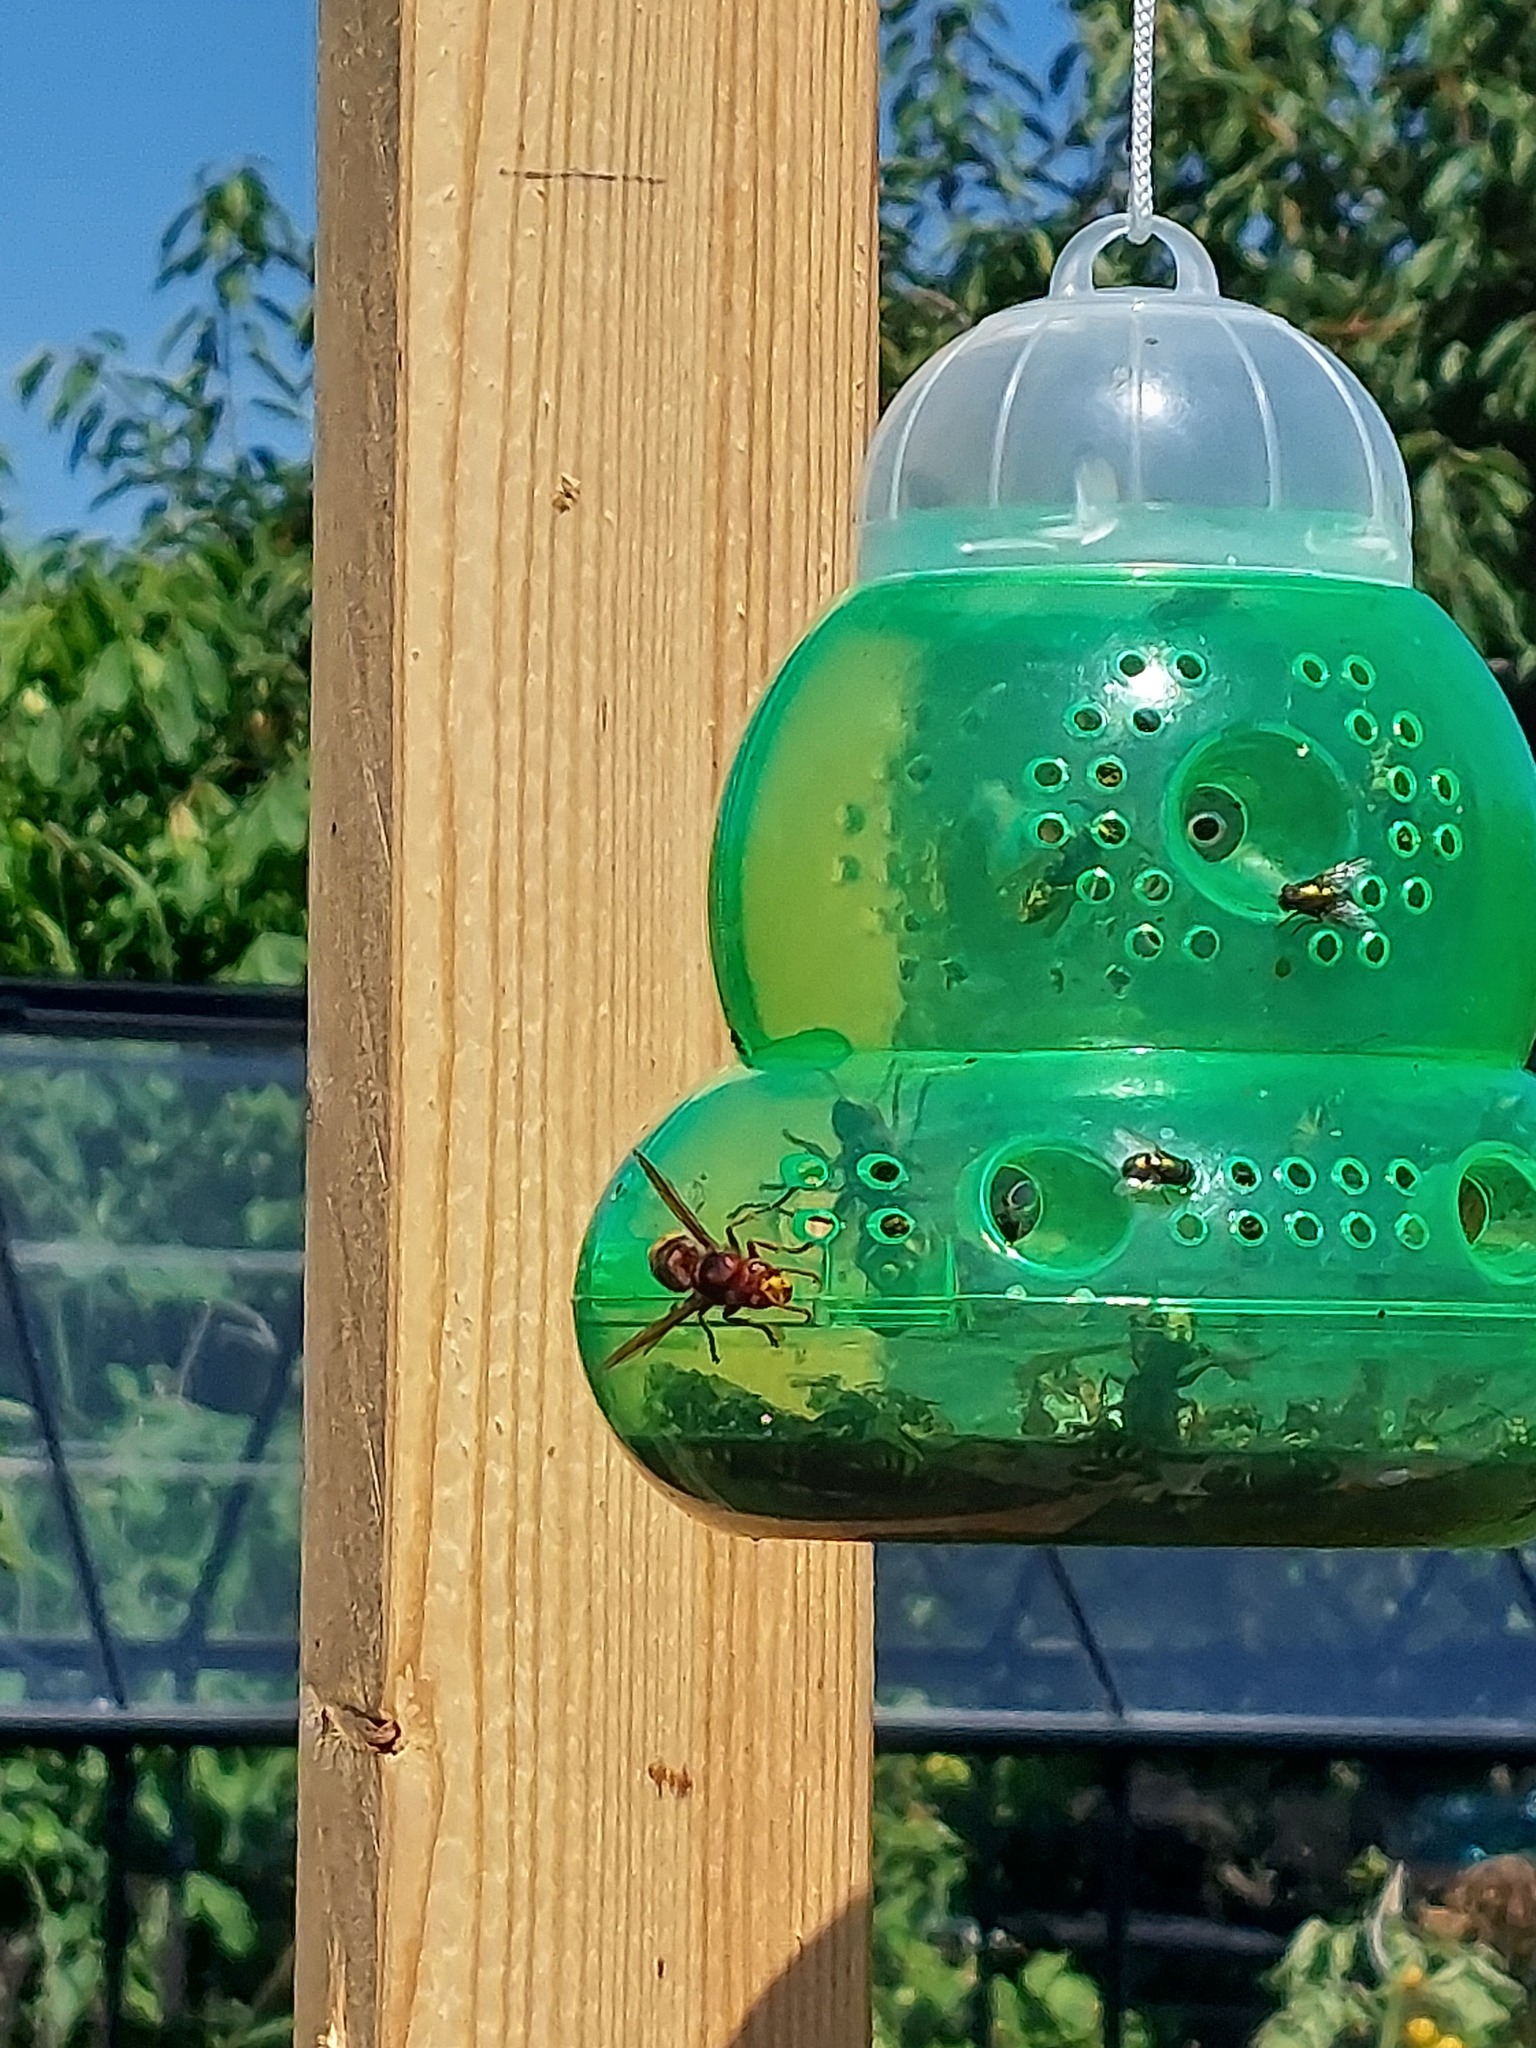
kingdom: Animalia
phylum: Arthropoda
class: Insecta
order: Hymenoptera
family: Vespidae
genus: Vespa
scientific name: Vespa crabro
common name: Hornet
